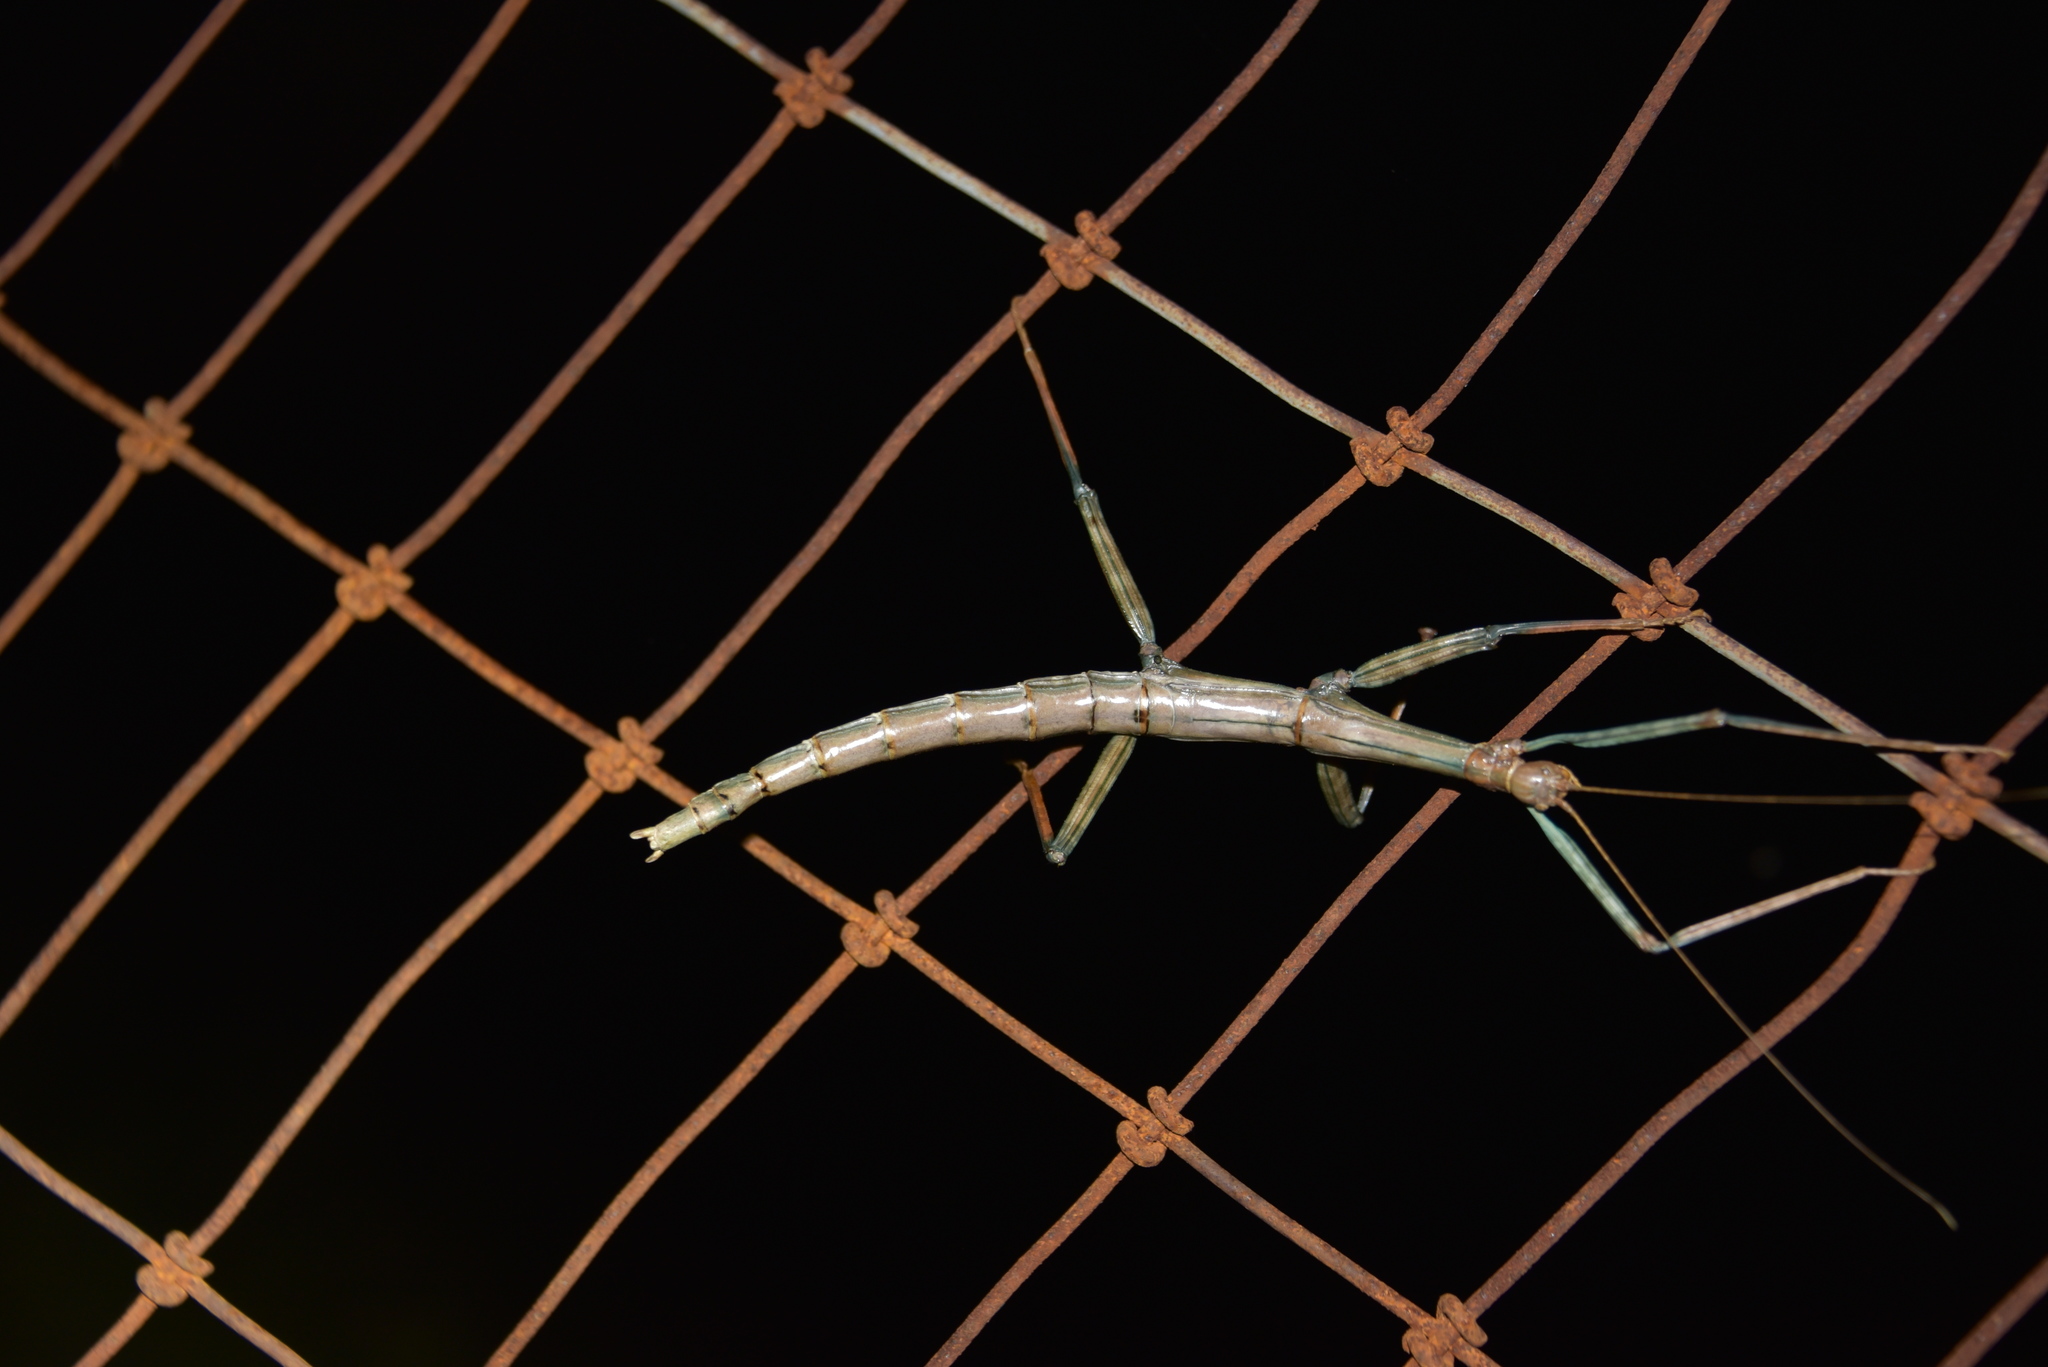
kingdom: Animalia
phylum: Arthropoda
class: Insecta
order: Phasmida
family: Diapheromeridae
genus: Megaphasma
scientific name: Megaphasma denticrus
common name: Giant walkingstick
